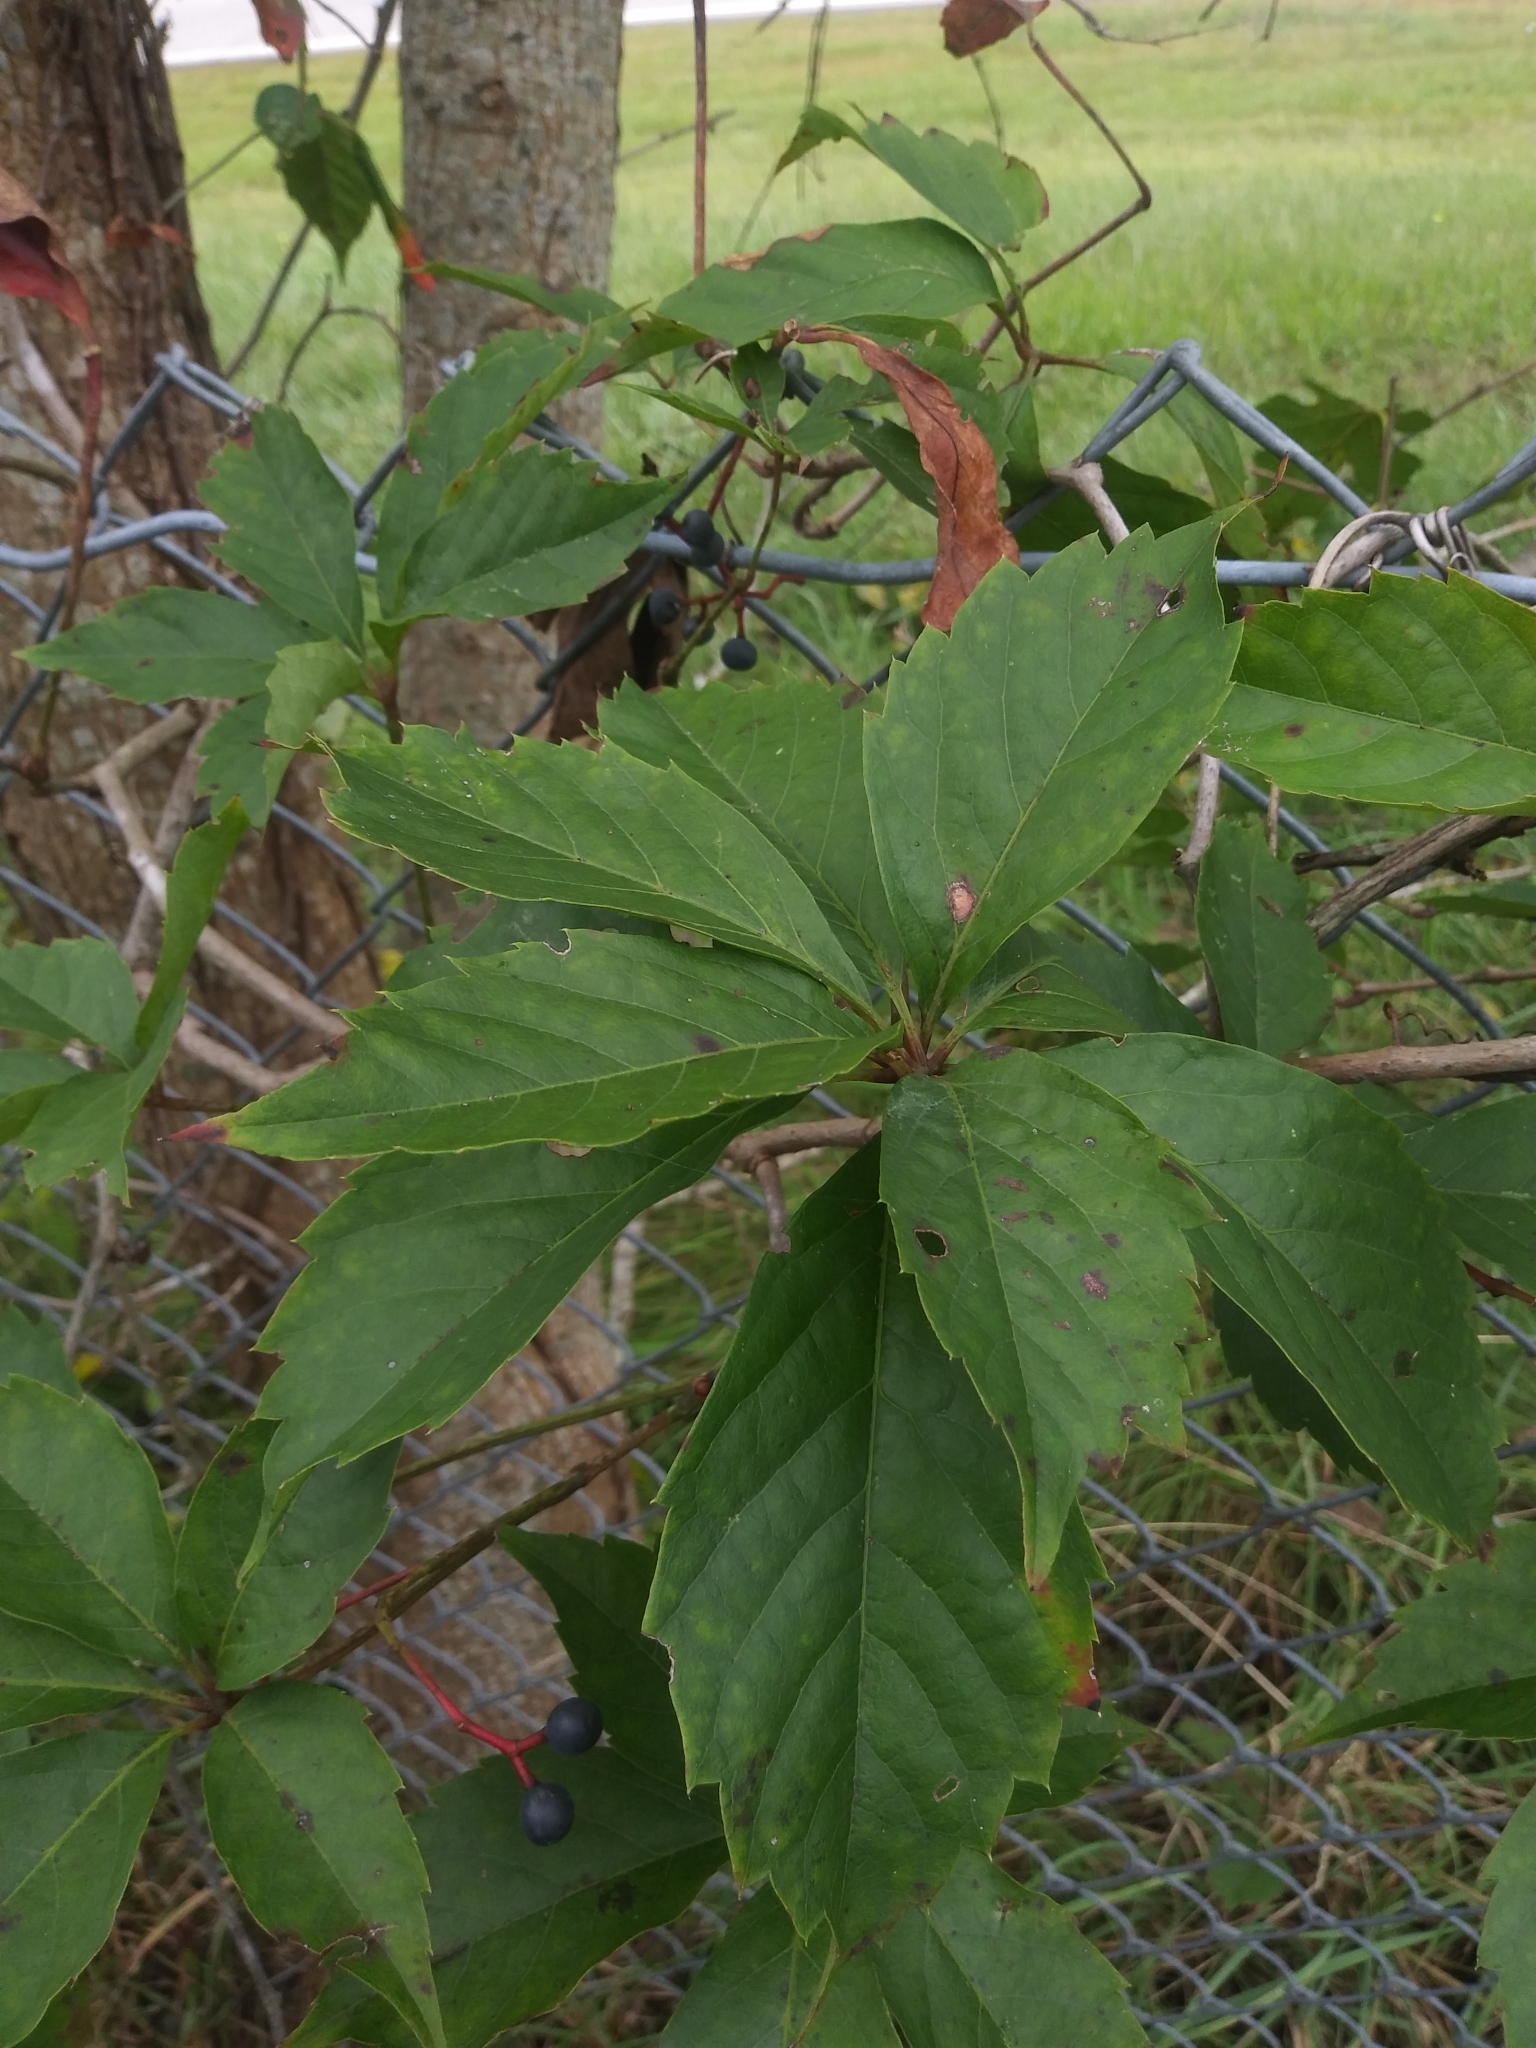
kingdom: Plantae
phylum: Tracheophyta
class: Magnoliopsida
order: Vitales
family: Vitaceae
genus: Parthenocissus
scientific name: Parthenocissus quinquefolia
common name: Virginia-creeper
